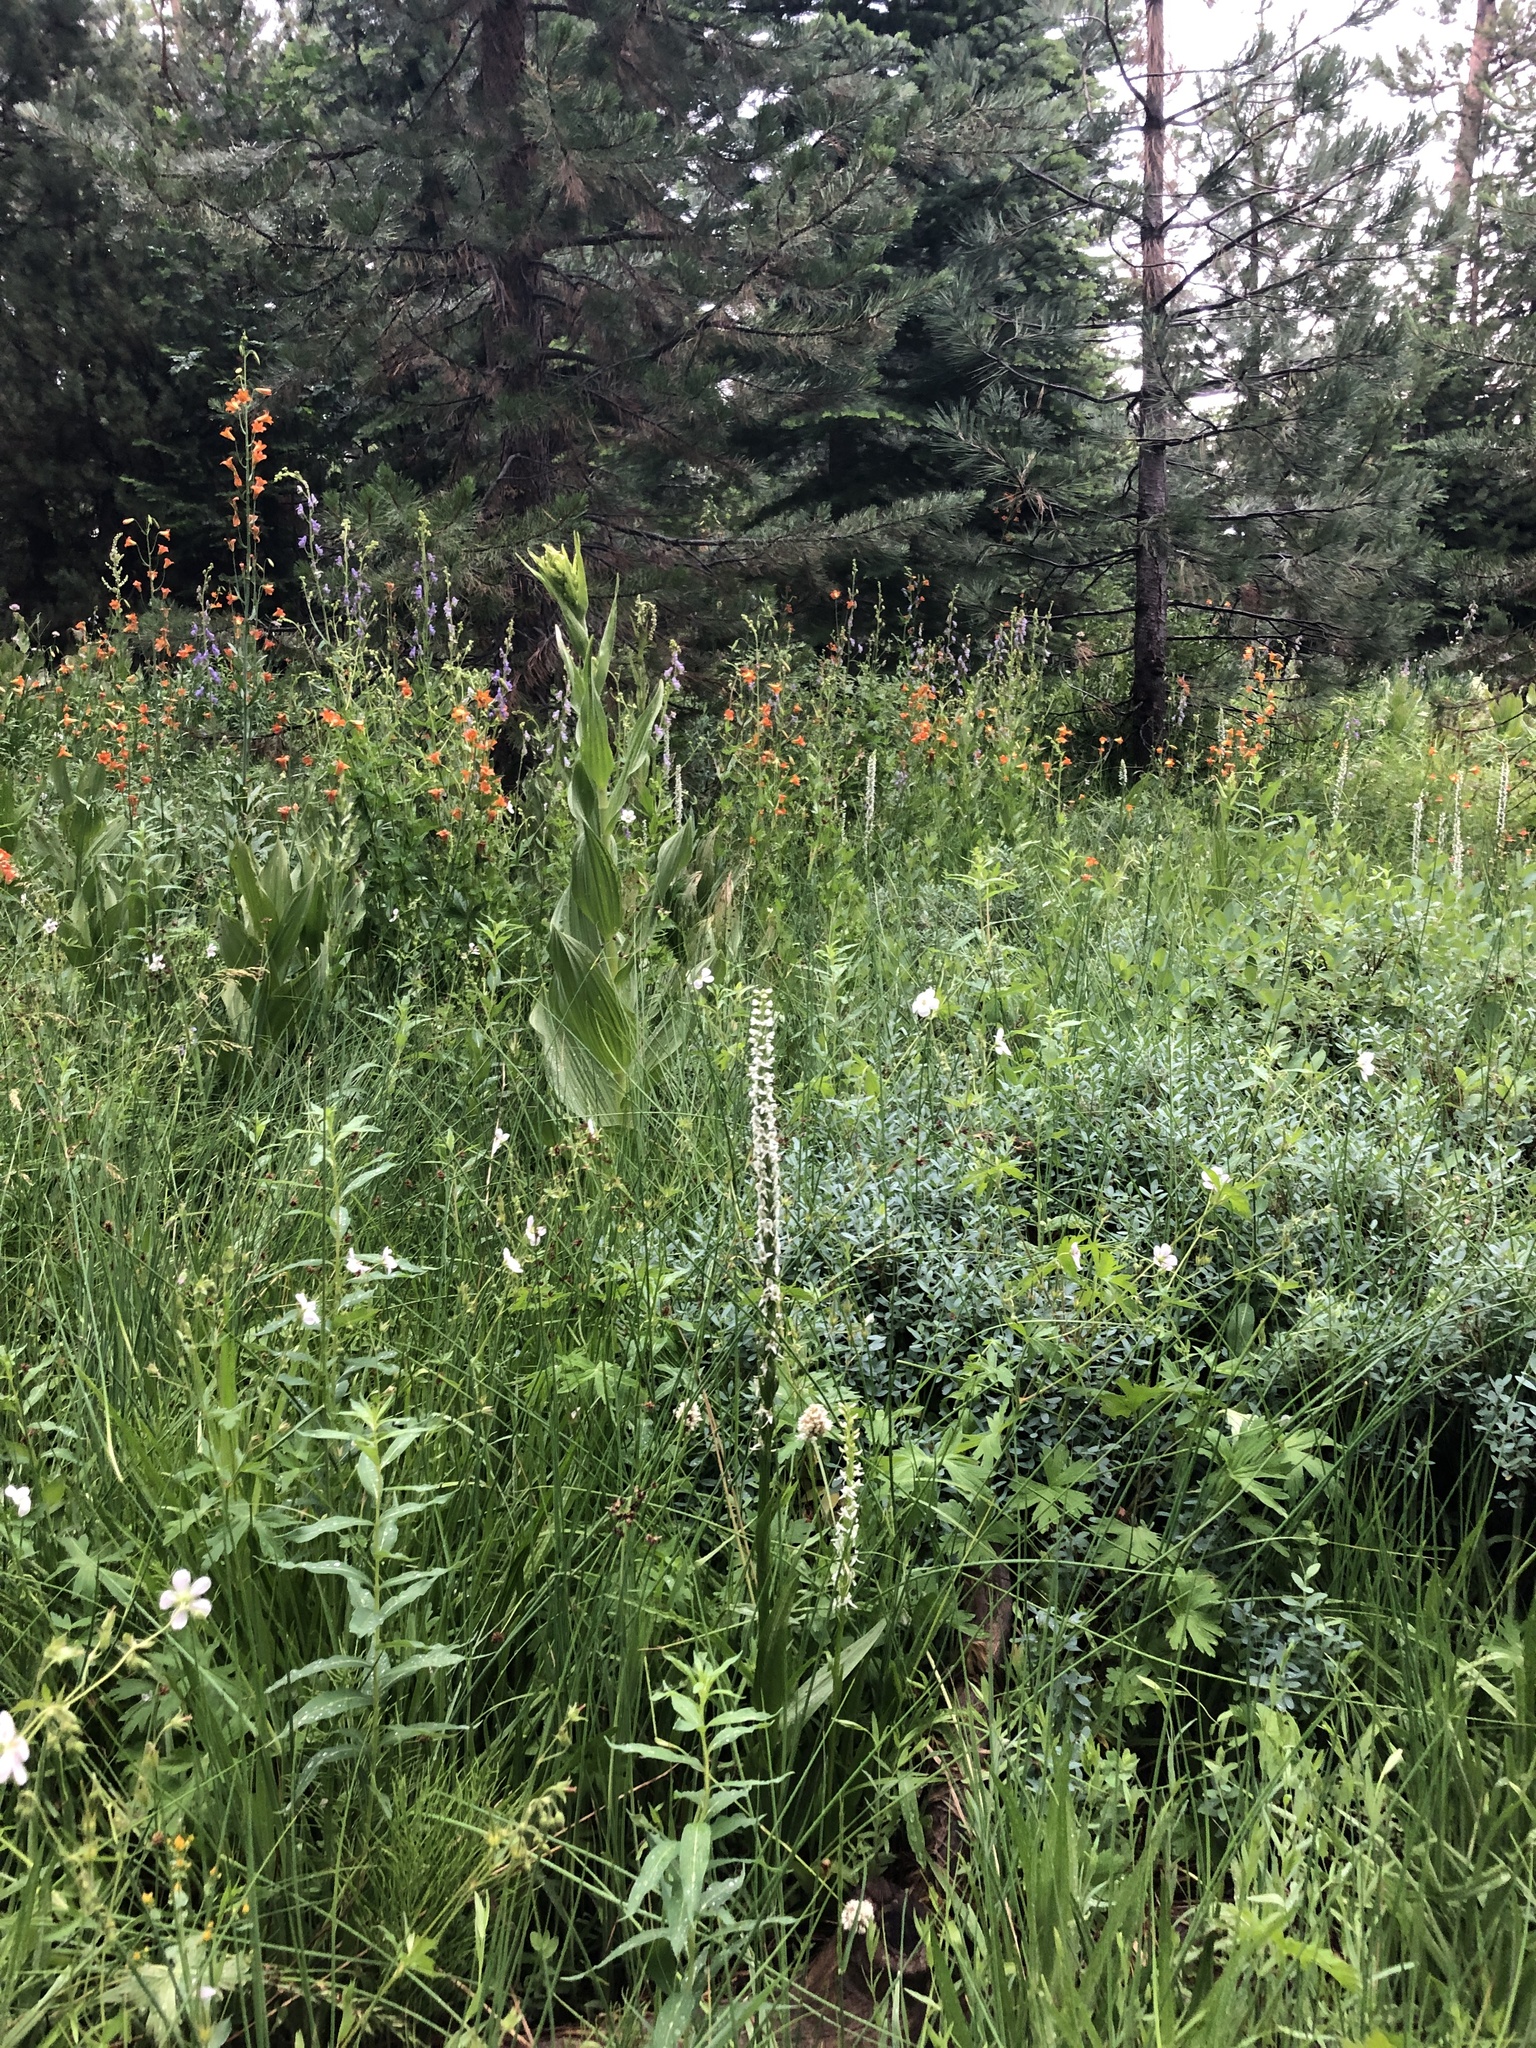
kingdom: Plantae
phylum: Tracheophyta
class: Liliopsida
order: Liliales
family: Liliaceae
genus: Lilium
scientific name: Lilium parvum
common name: Alpine lily
